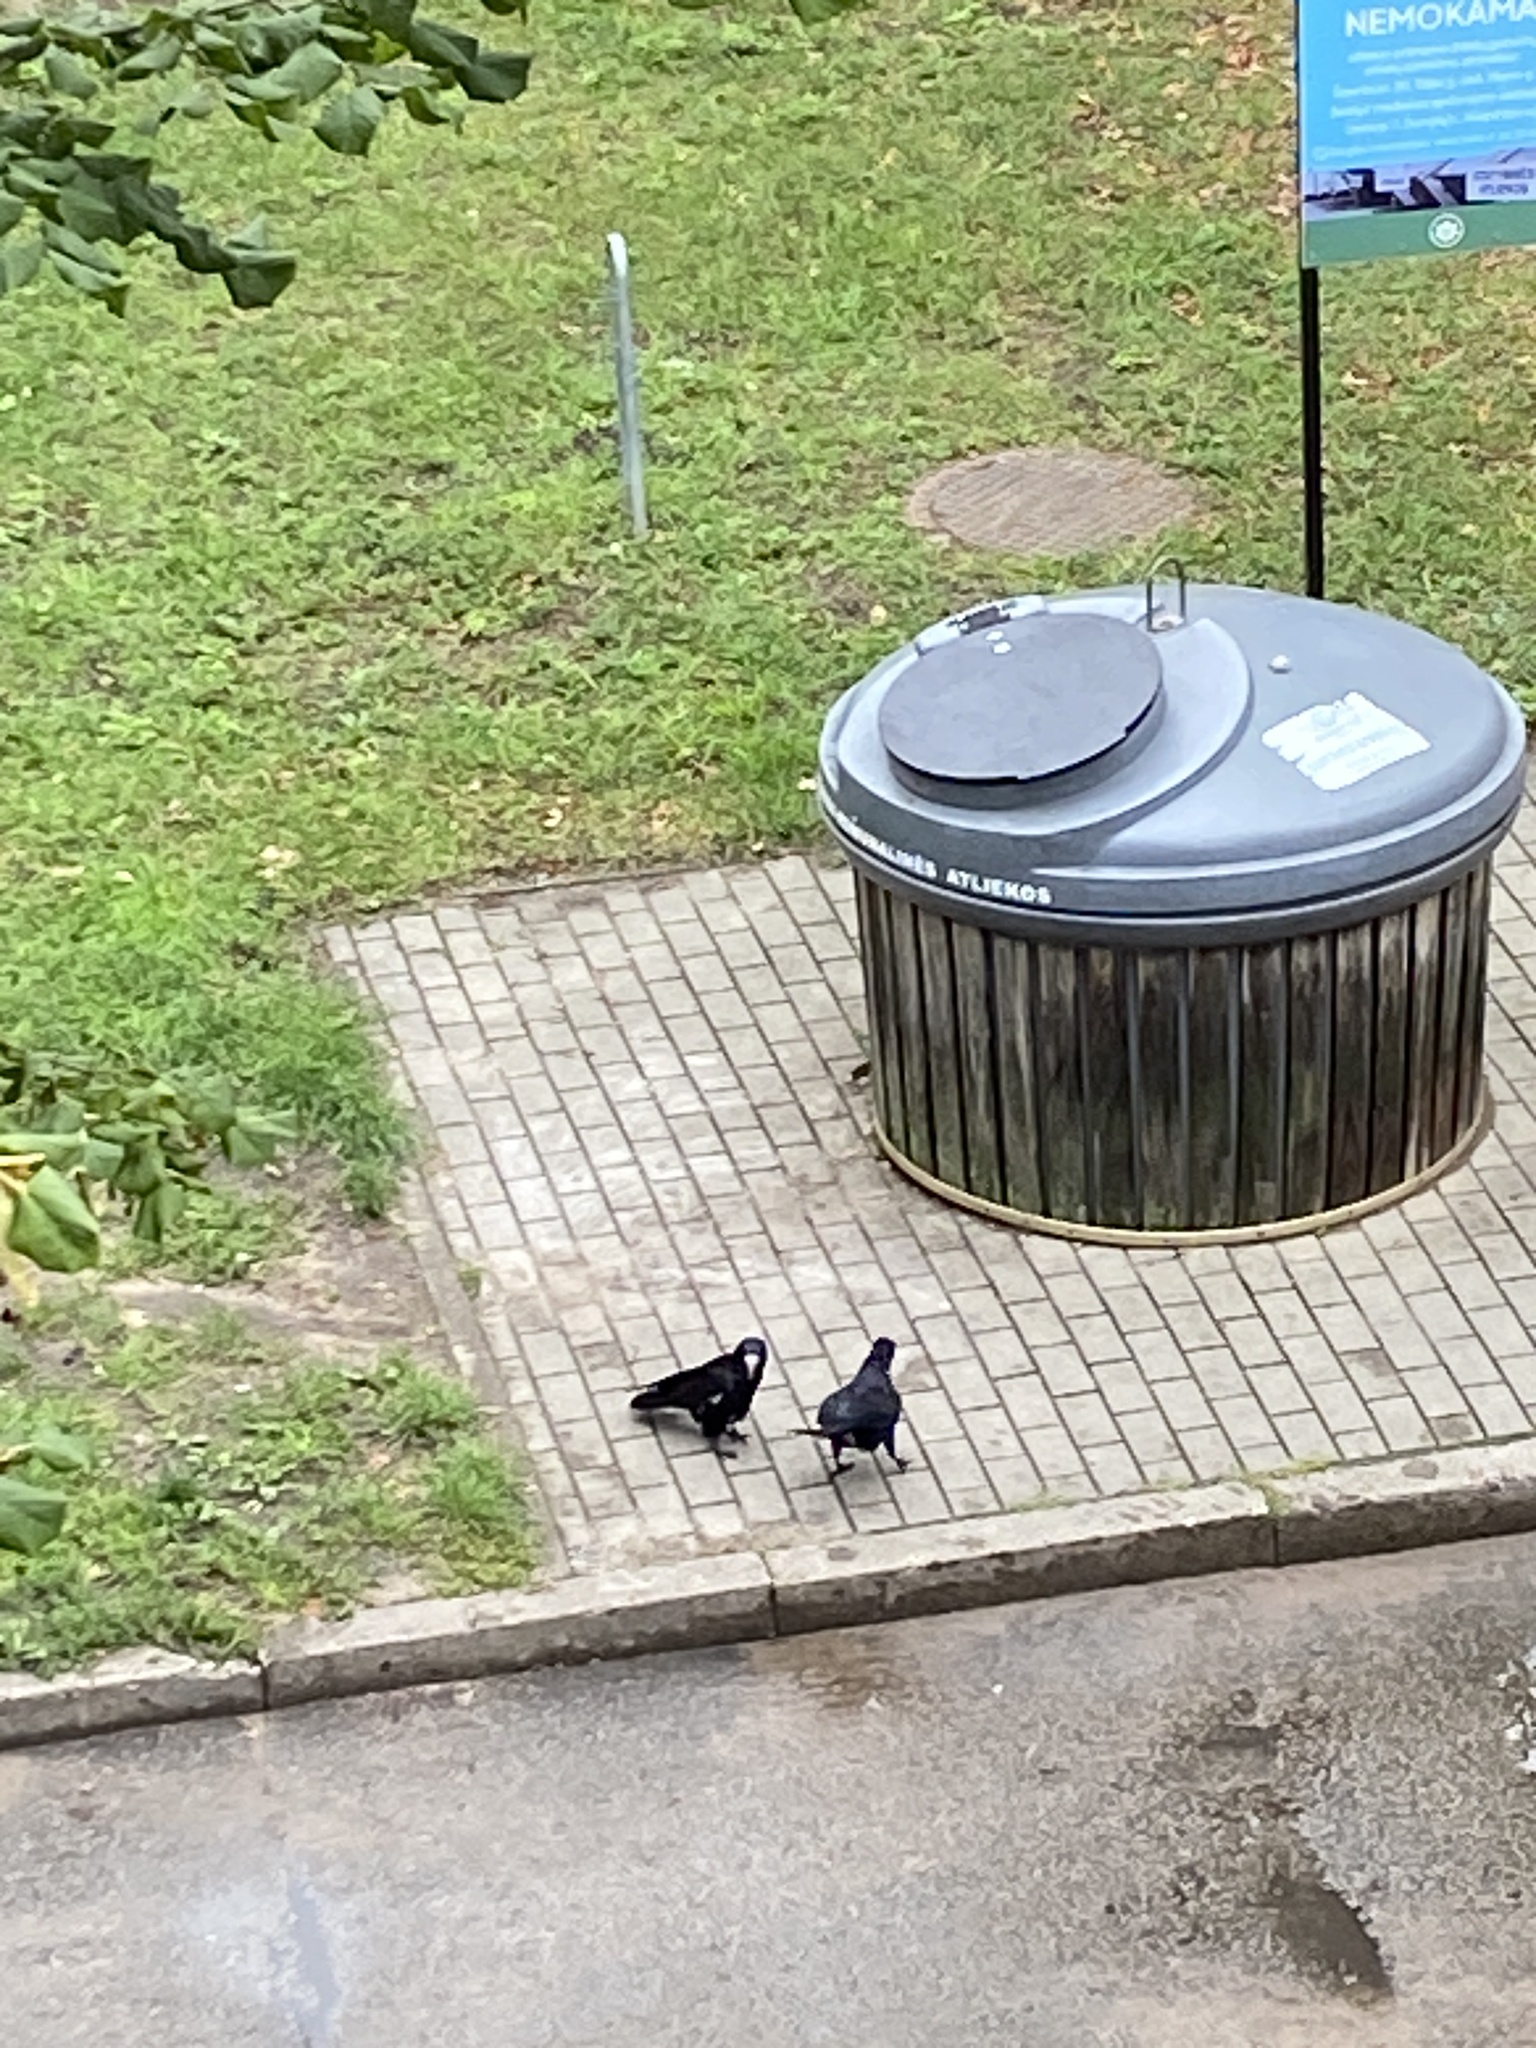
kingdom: Animalia
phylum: Chordata
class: Aves
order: Passeriformes
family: Corvidae
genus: Corvus
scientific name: Corvus frugilegus
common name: Rook
